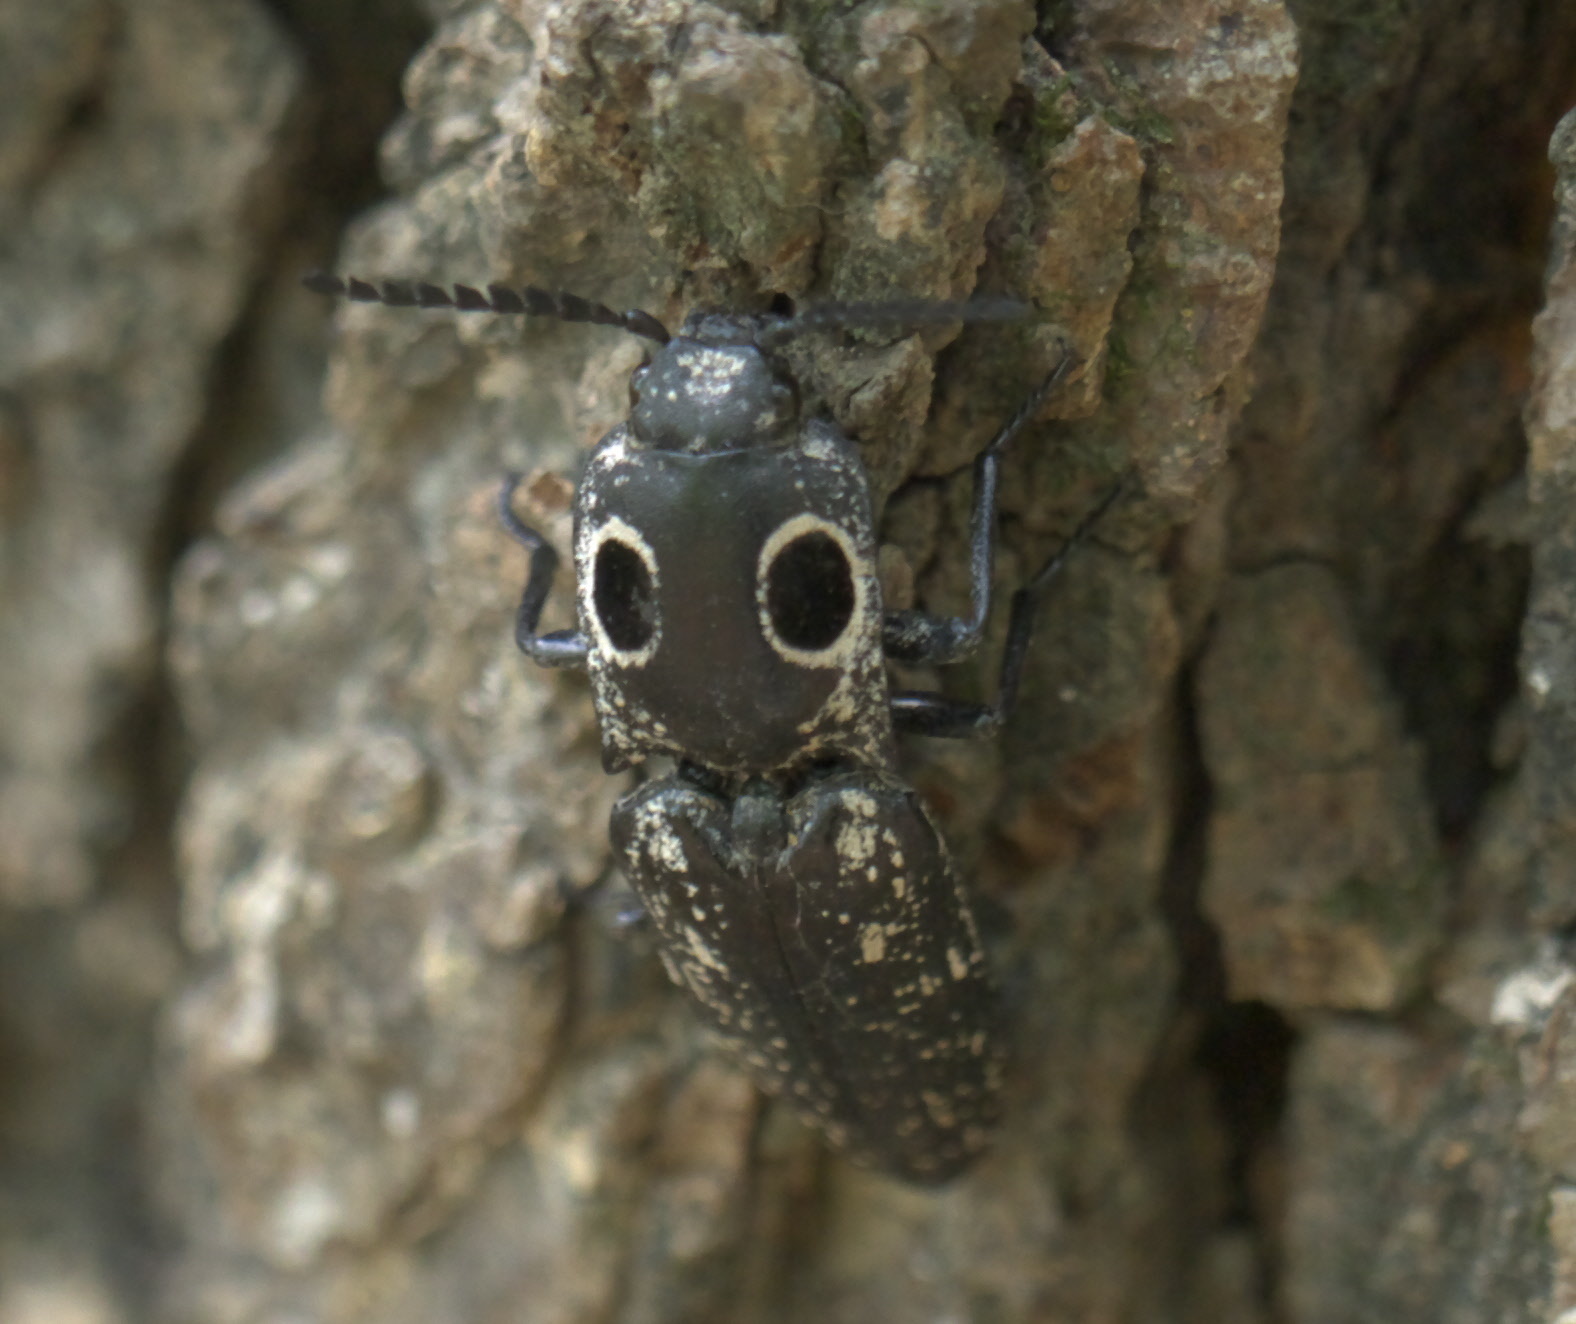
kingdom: Animalia
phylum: Arthropoda
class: Insecta
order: Coleoptera
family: Elateridae
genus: Alaus
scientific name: Alaus oculatus
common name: Eastern eyed click beetle
